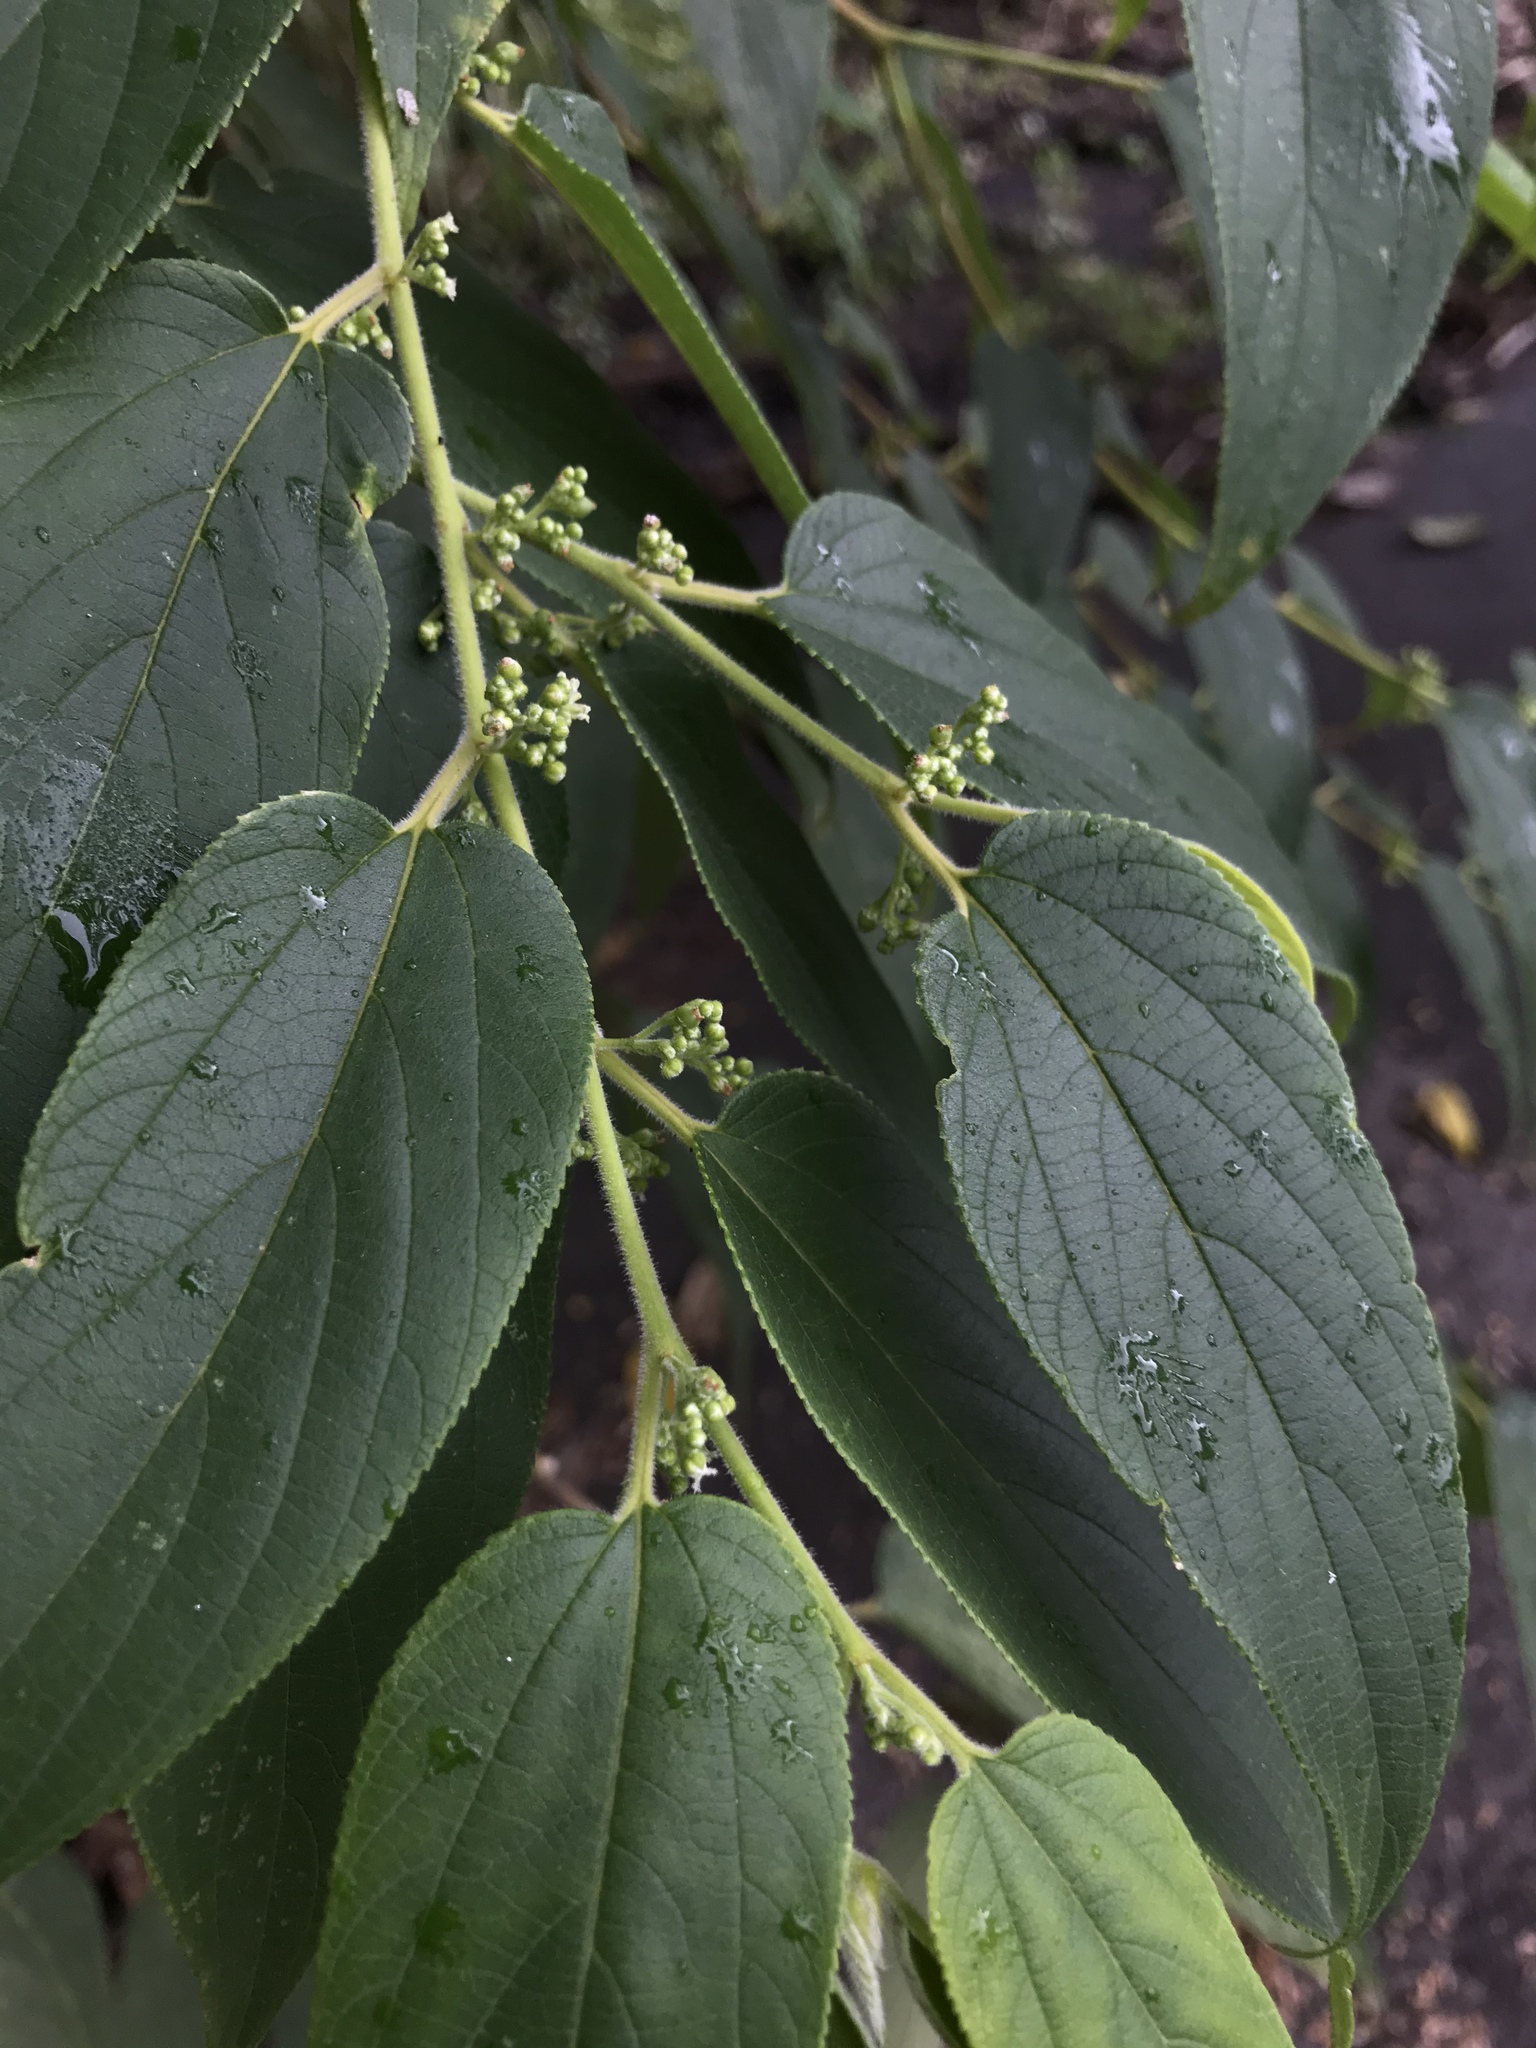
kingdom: Plantae
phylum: Tracheophyta
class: Magnoliopsida
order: Rosales
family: Cannabaceae
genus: Trema
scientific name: Trema orientale
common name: Indian charcoal tree
